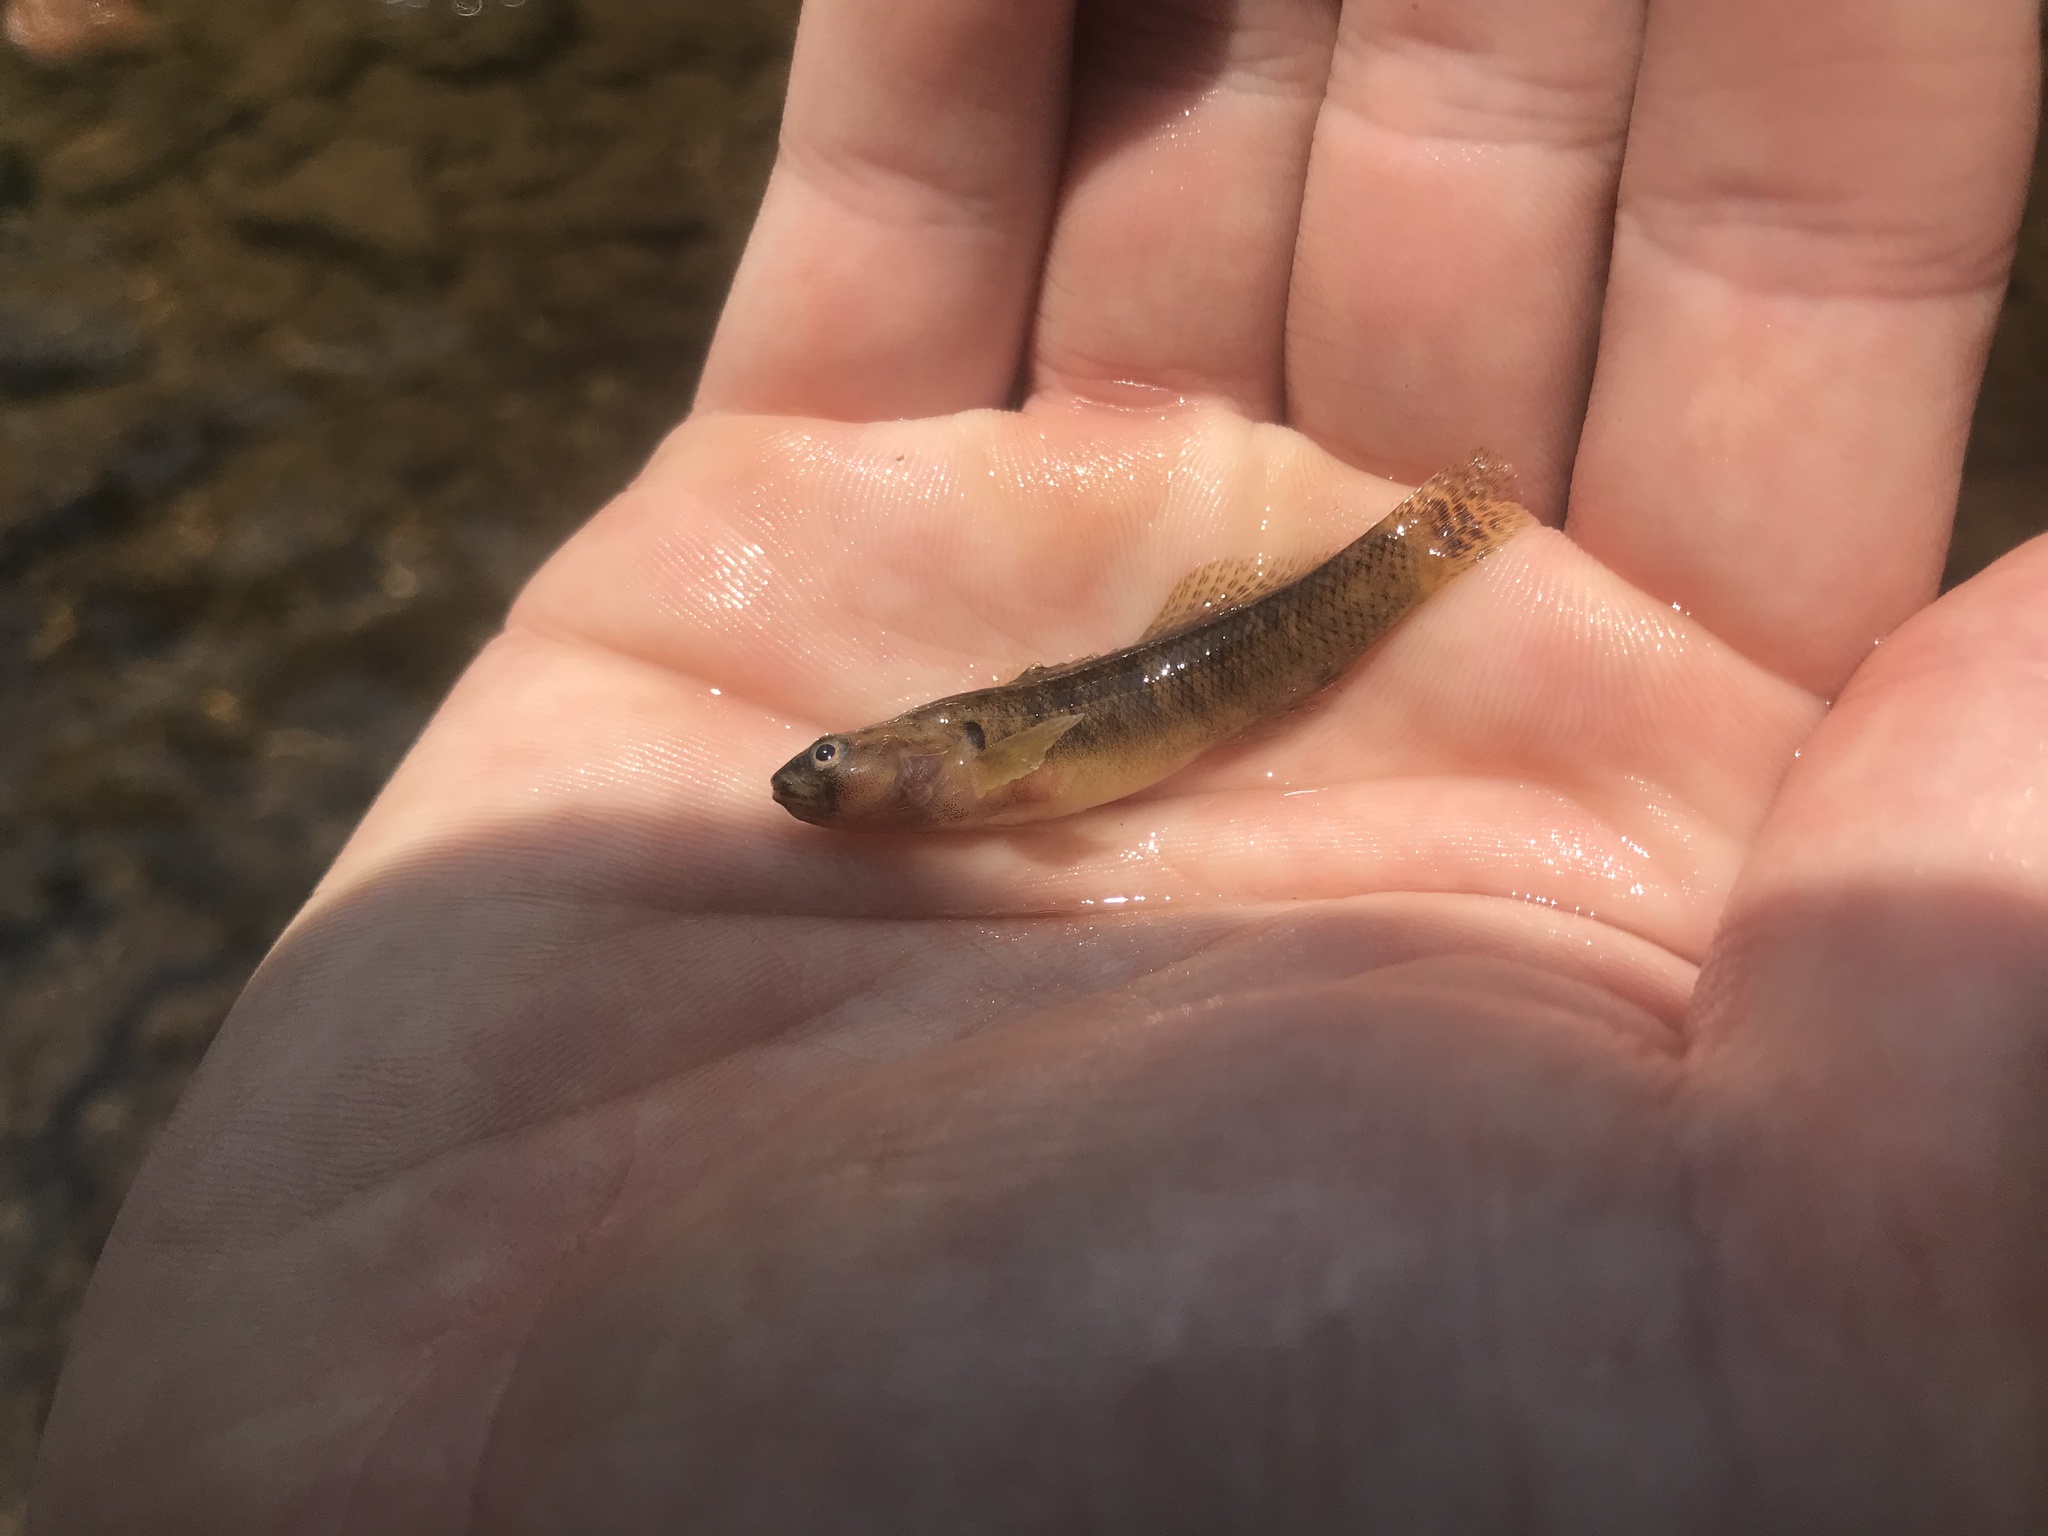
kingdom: Animalia
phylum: Chordata
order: Perciformes
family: Percidae
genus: Etheostoma
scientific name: Etheostoma flabellare
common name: Fantail darter
